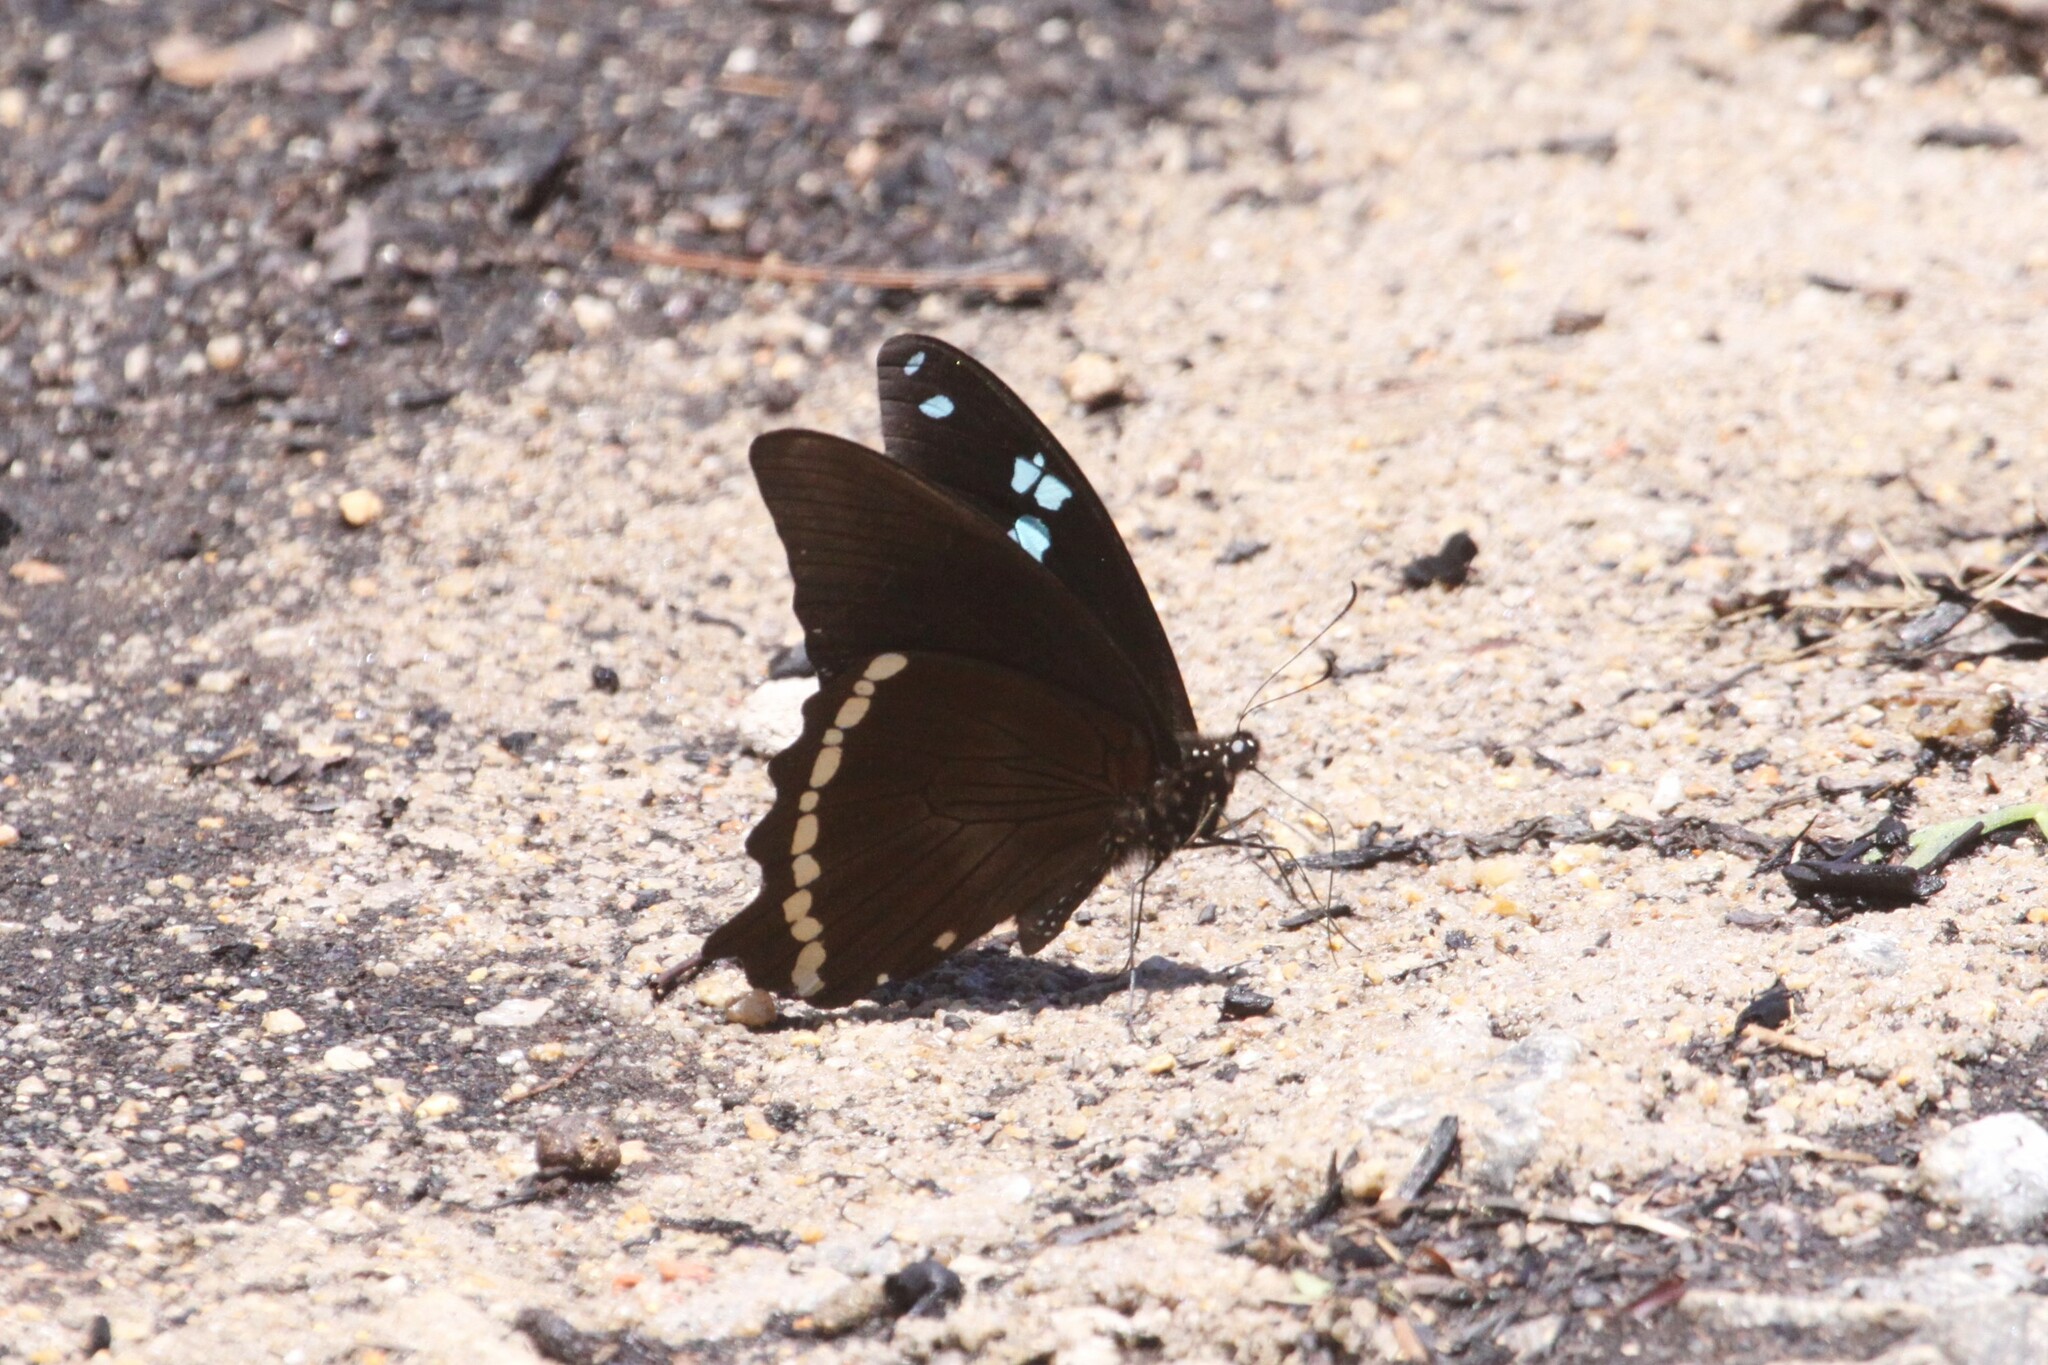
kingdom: Animalia
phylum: Arthropoda
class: Insecta
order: Lepidoptera
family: Papilionidae
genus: Papilio
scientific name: Papilio nireus
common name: Greenbanded swallowtail
